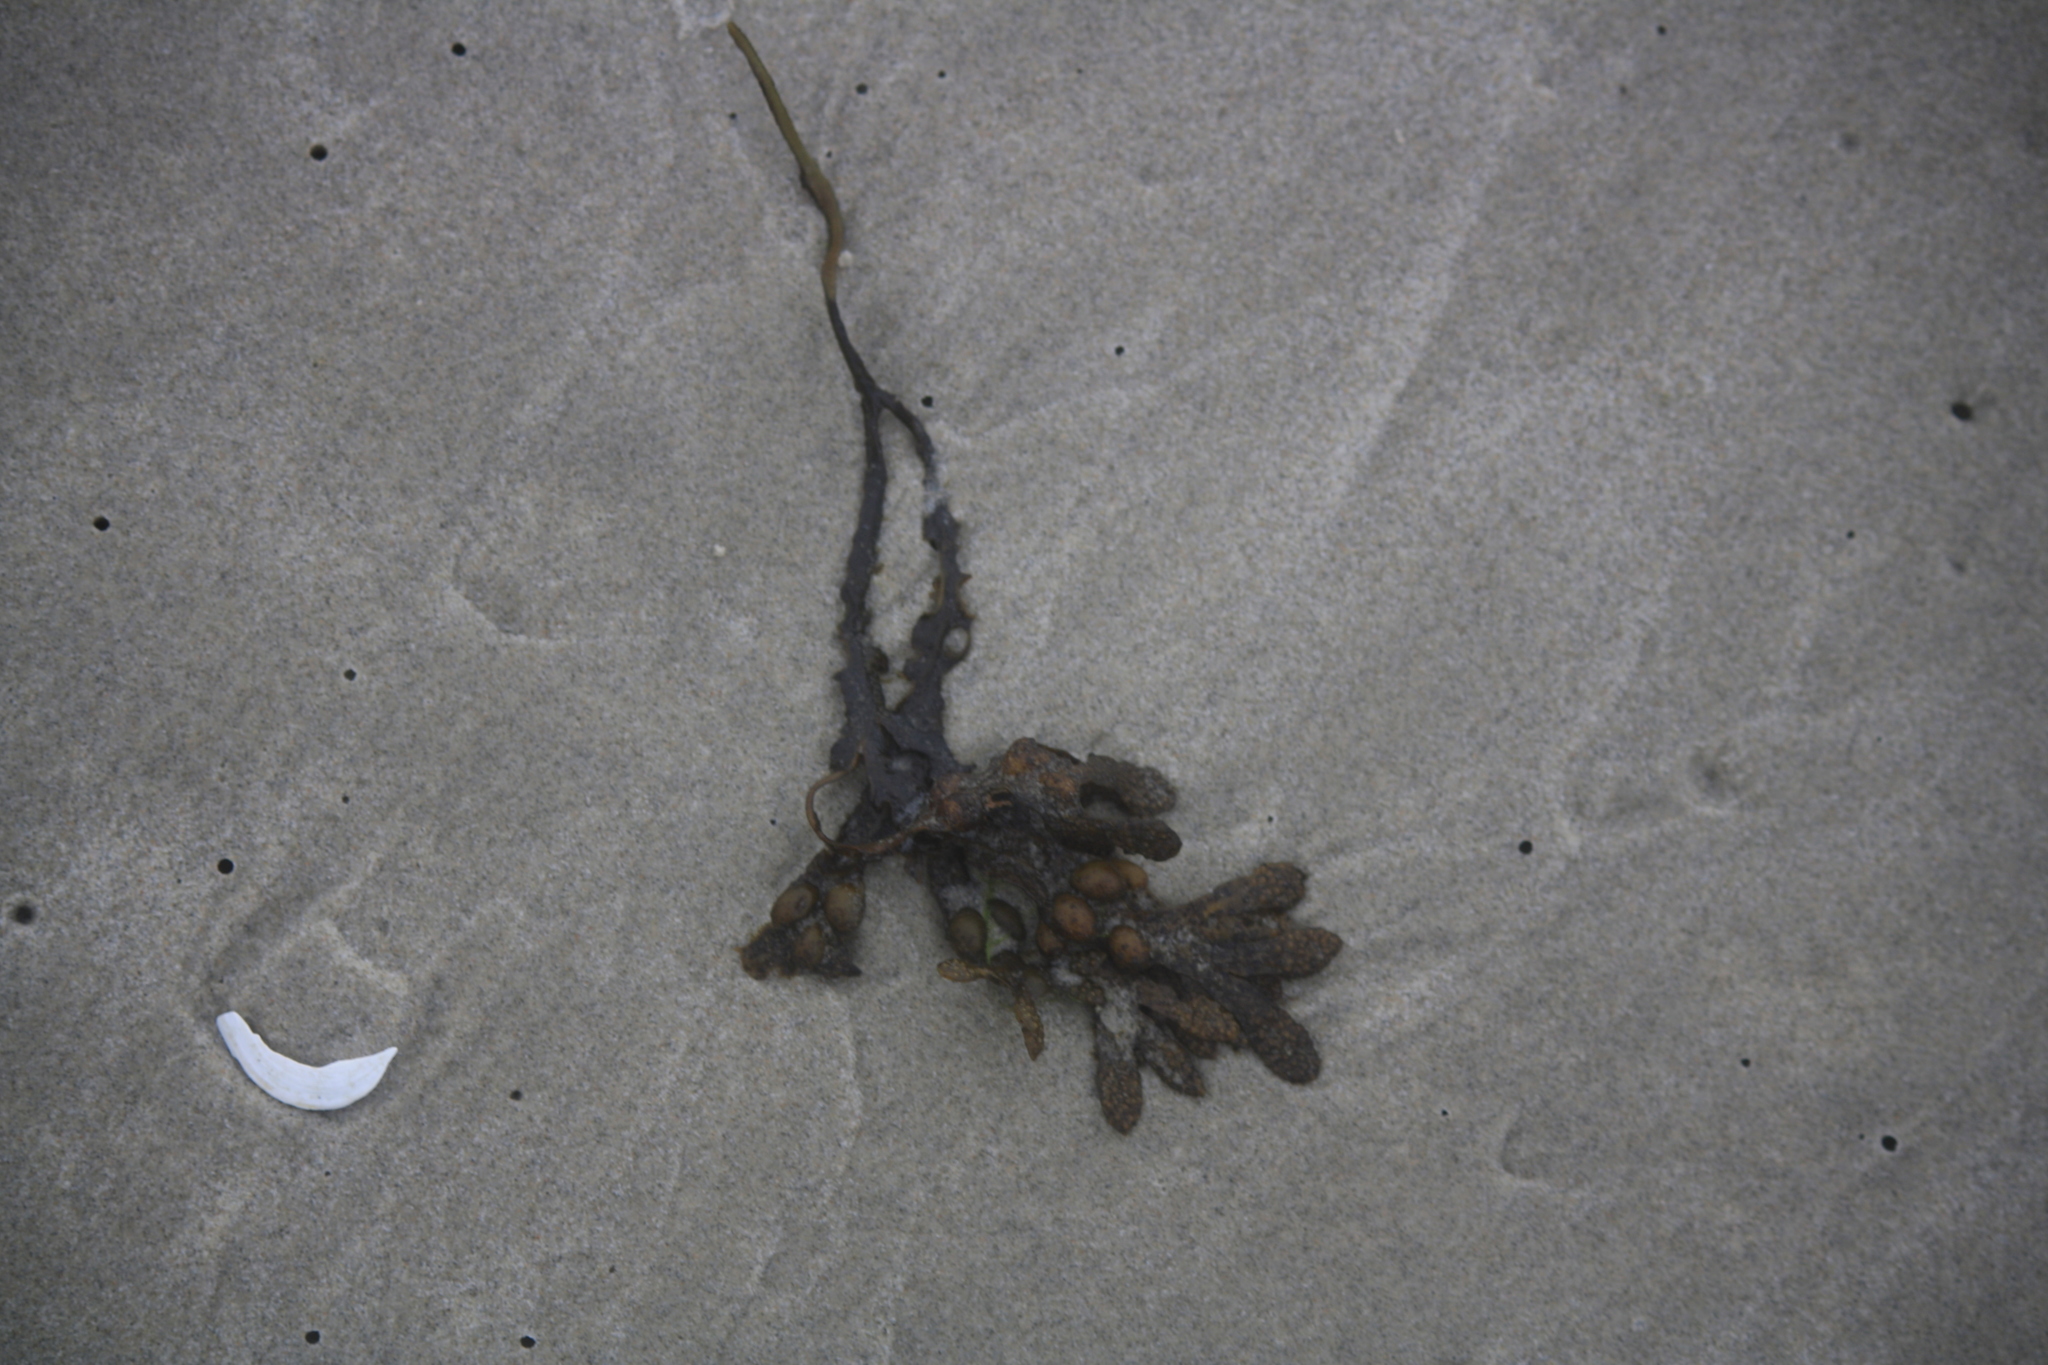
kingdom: Chromista
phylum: Ochrophyta
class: Phaeophyceae
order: Fucales
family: Fucaceae
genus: Fucus
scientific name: Fucus vesiculosus
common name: Bladder wrack
